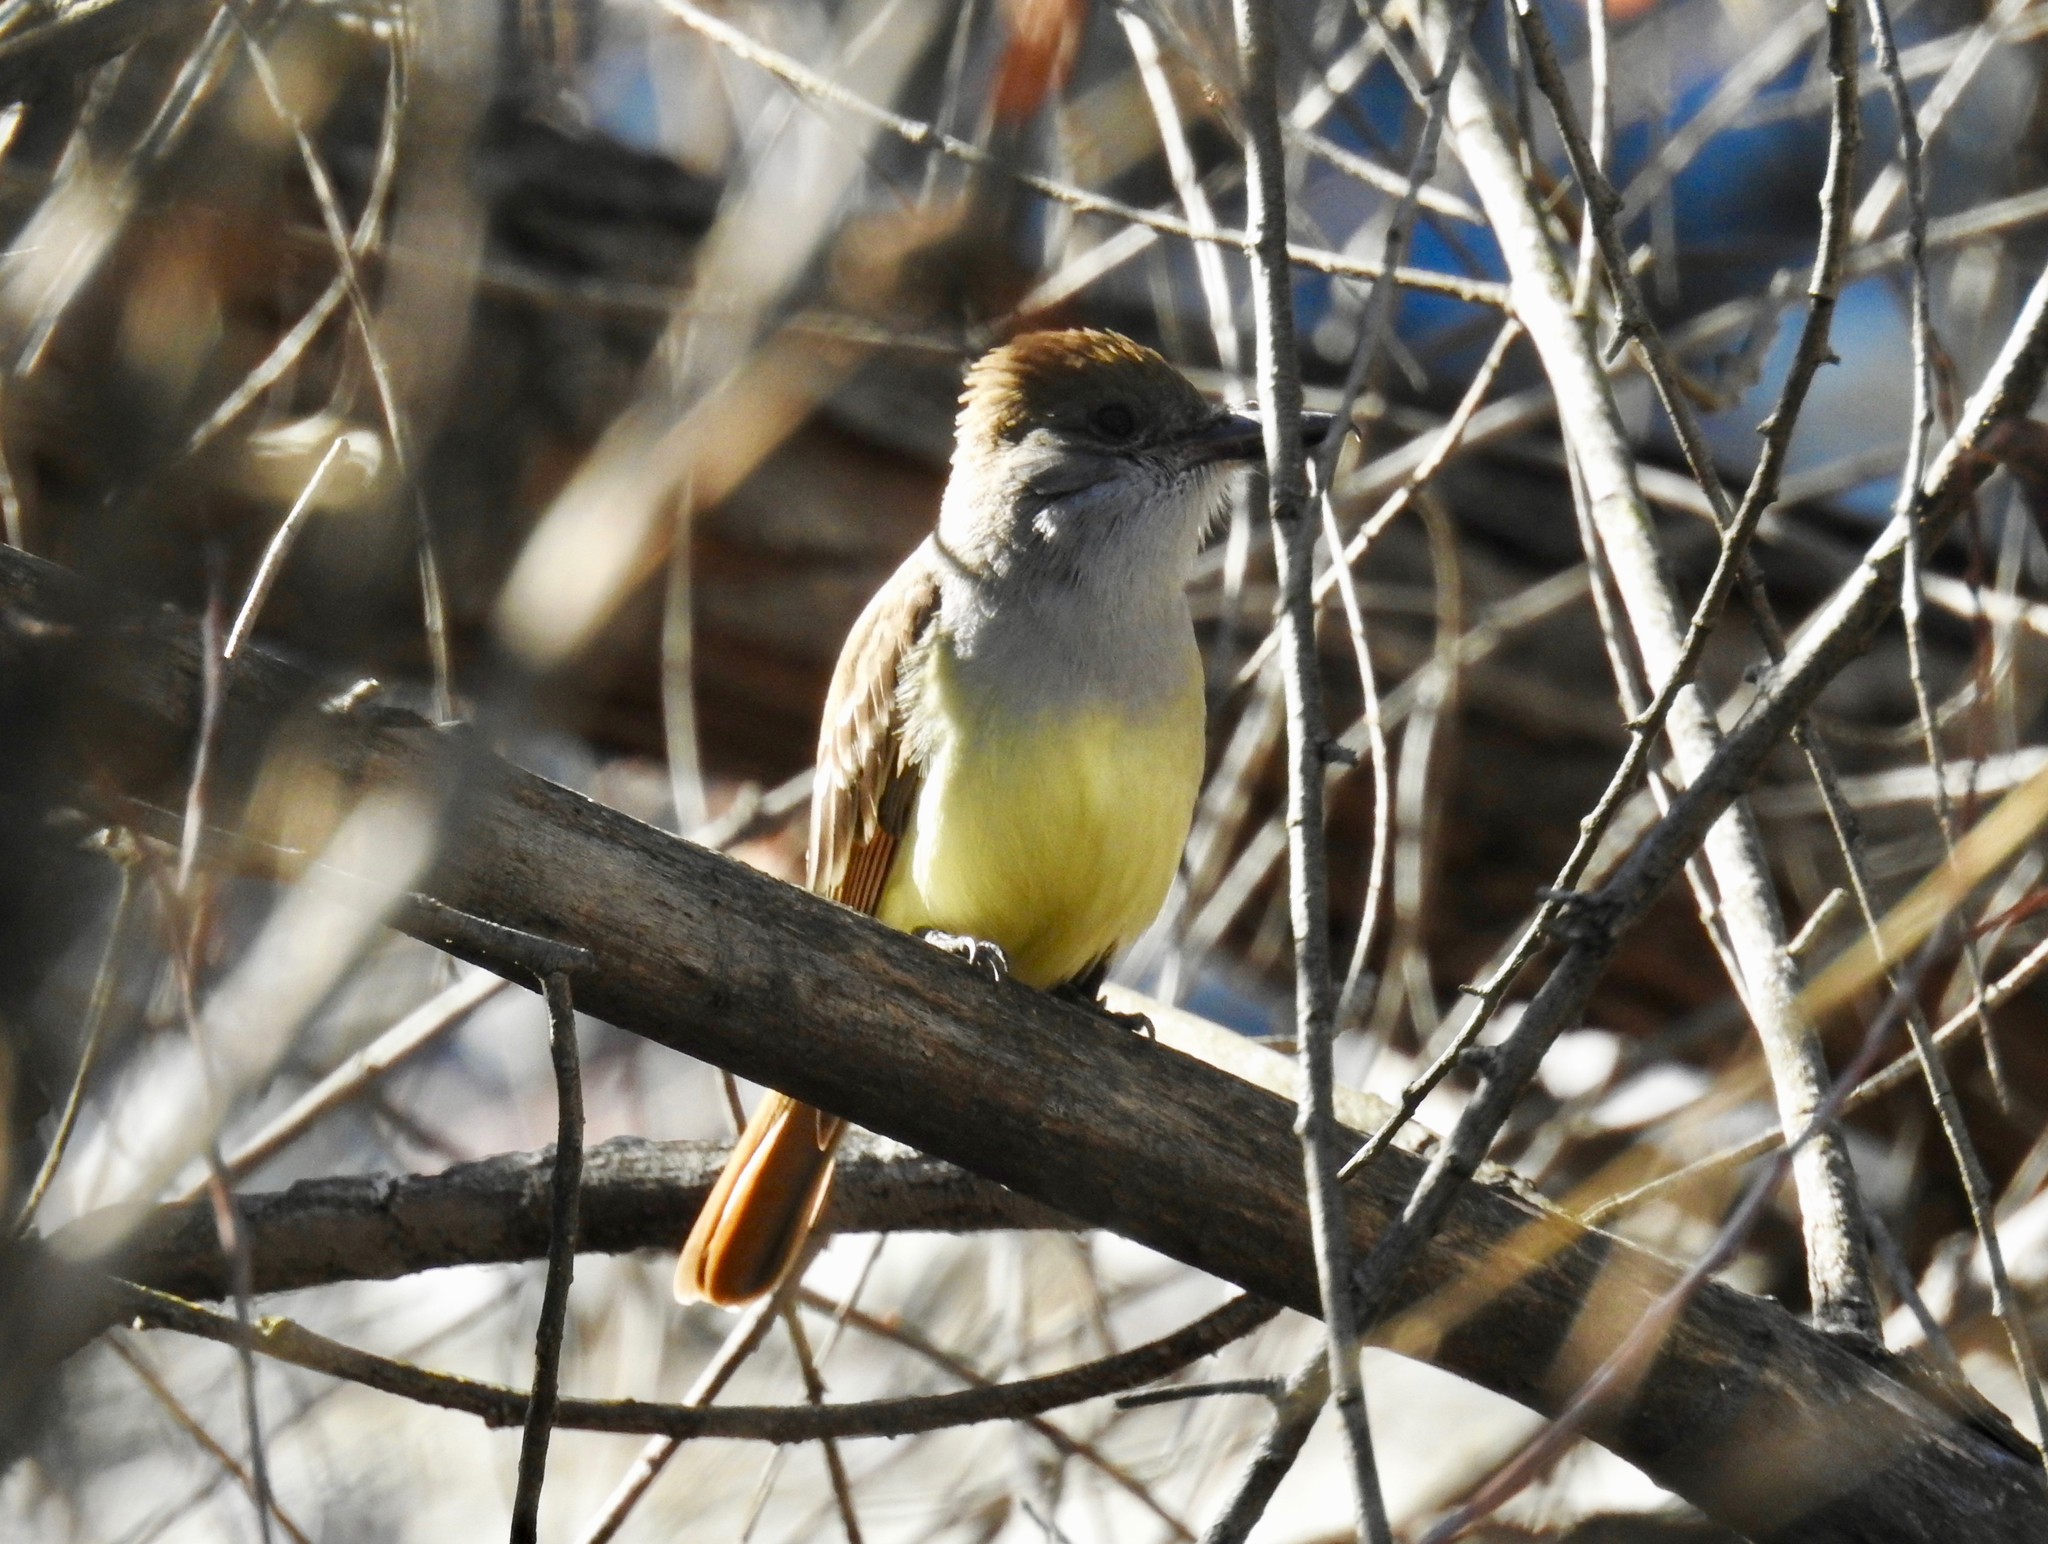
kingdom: Animalia
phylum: Chordata
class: Aves
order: Passeriformes
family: Tyrannidae
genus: Myiarchus
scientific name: Myiarchus tyrannulus
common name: Brown-crested flycatcher
